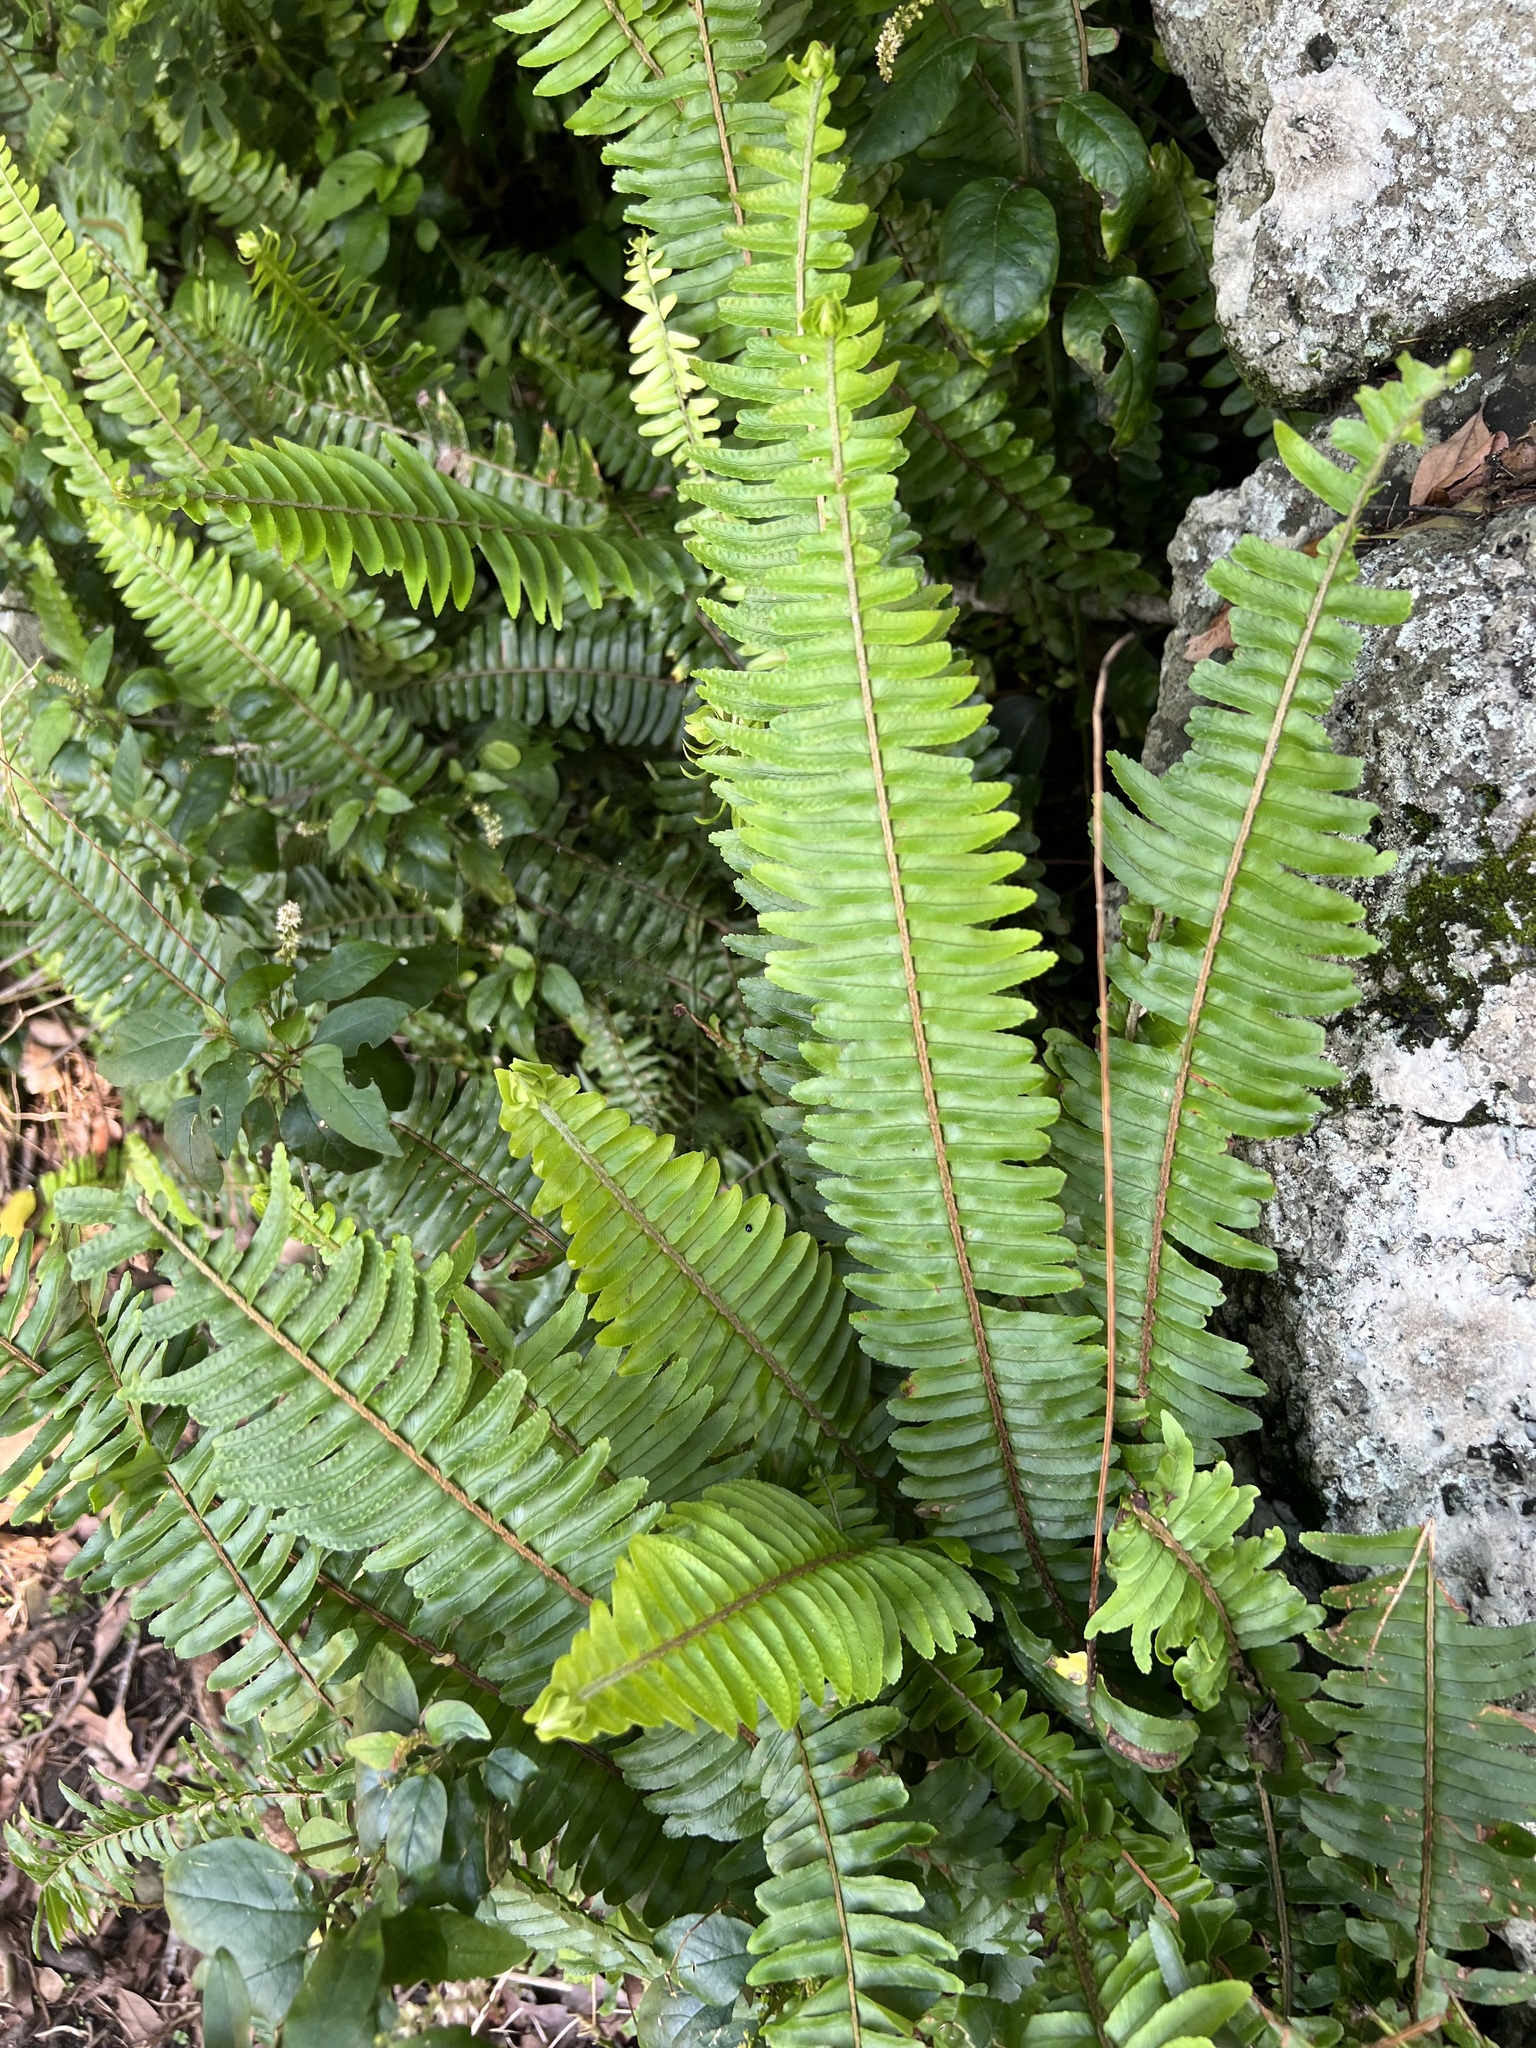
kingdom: Plantae
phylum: Tracheophyta
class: Polypodiopsida
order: Polypodiales
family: Nephrolepidaceae
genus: Nephrolepis
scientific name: Nephrolepis cordifolia
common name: Narrow swordfern
